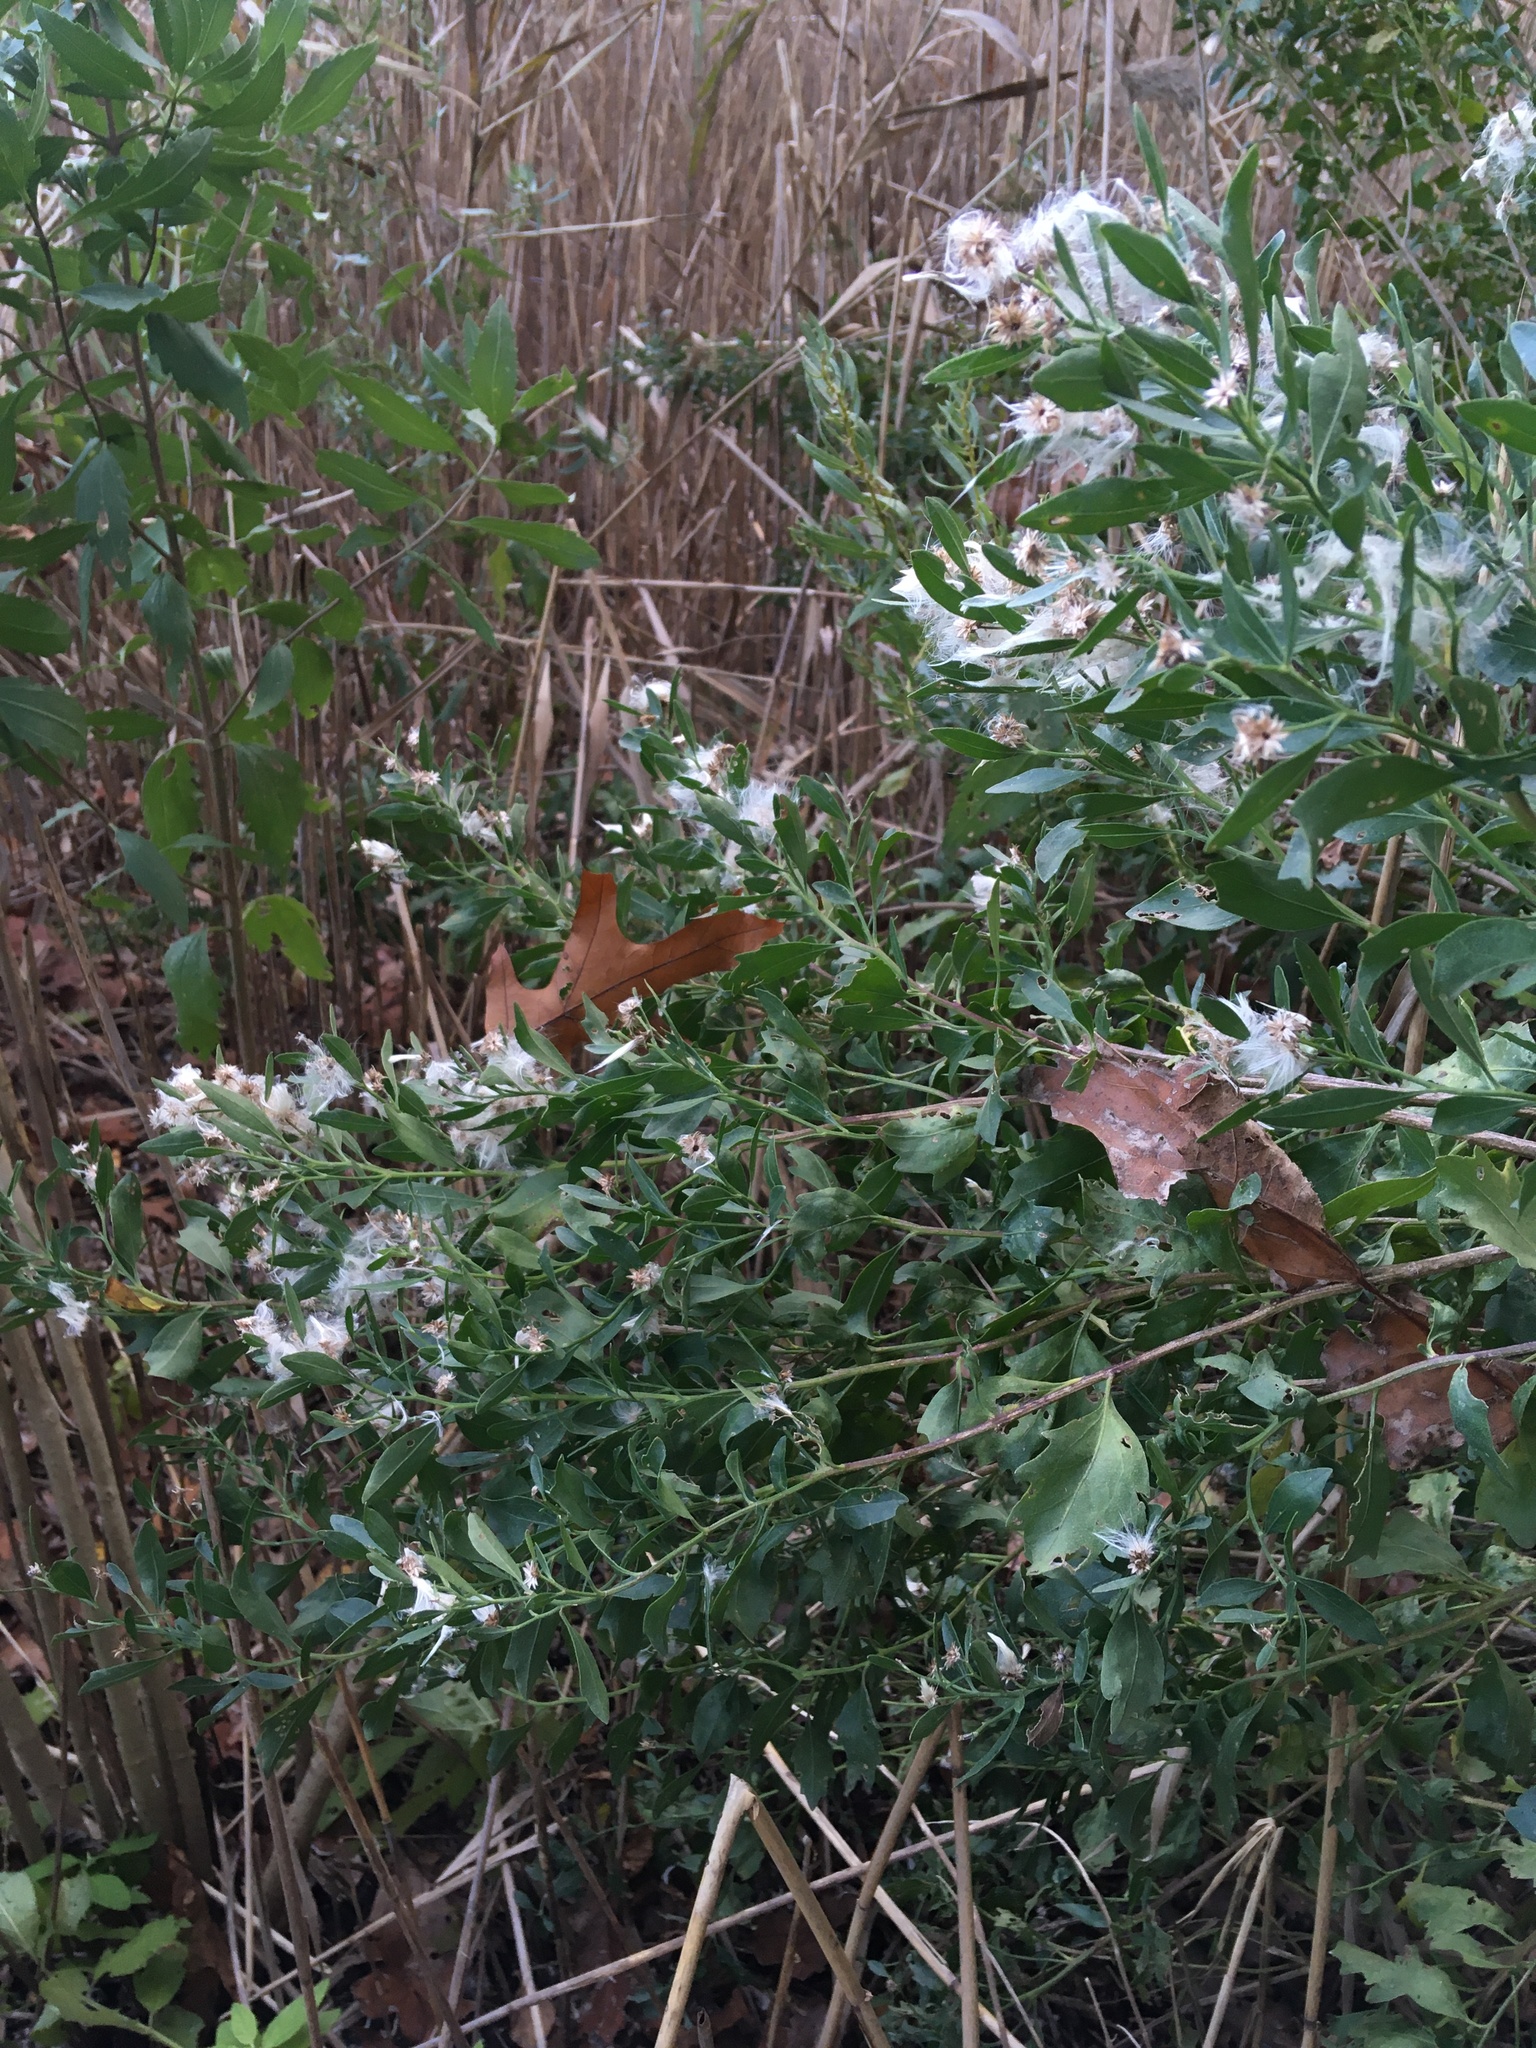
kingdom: Plantae
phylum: Tracheophyta
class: Magnoliopsida
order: Asterales
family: Asteraceae
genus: Baccharis
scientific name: Baccharis halimifolia
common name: Eastern baccharis
